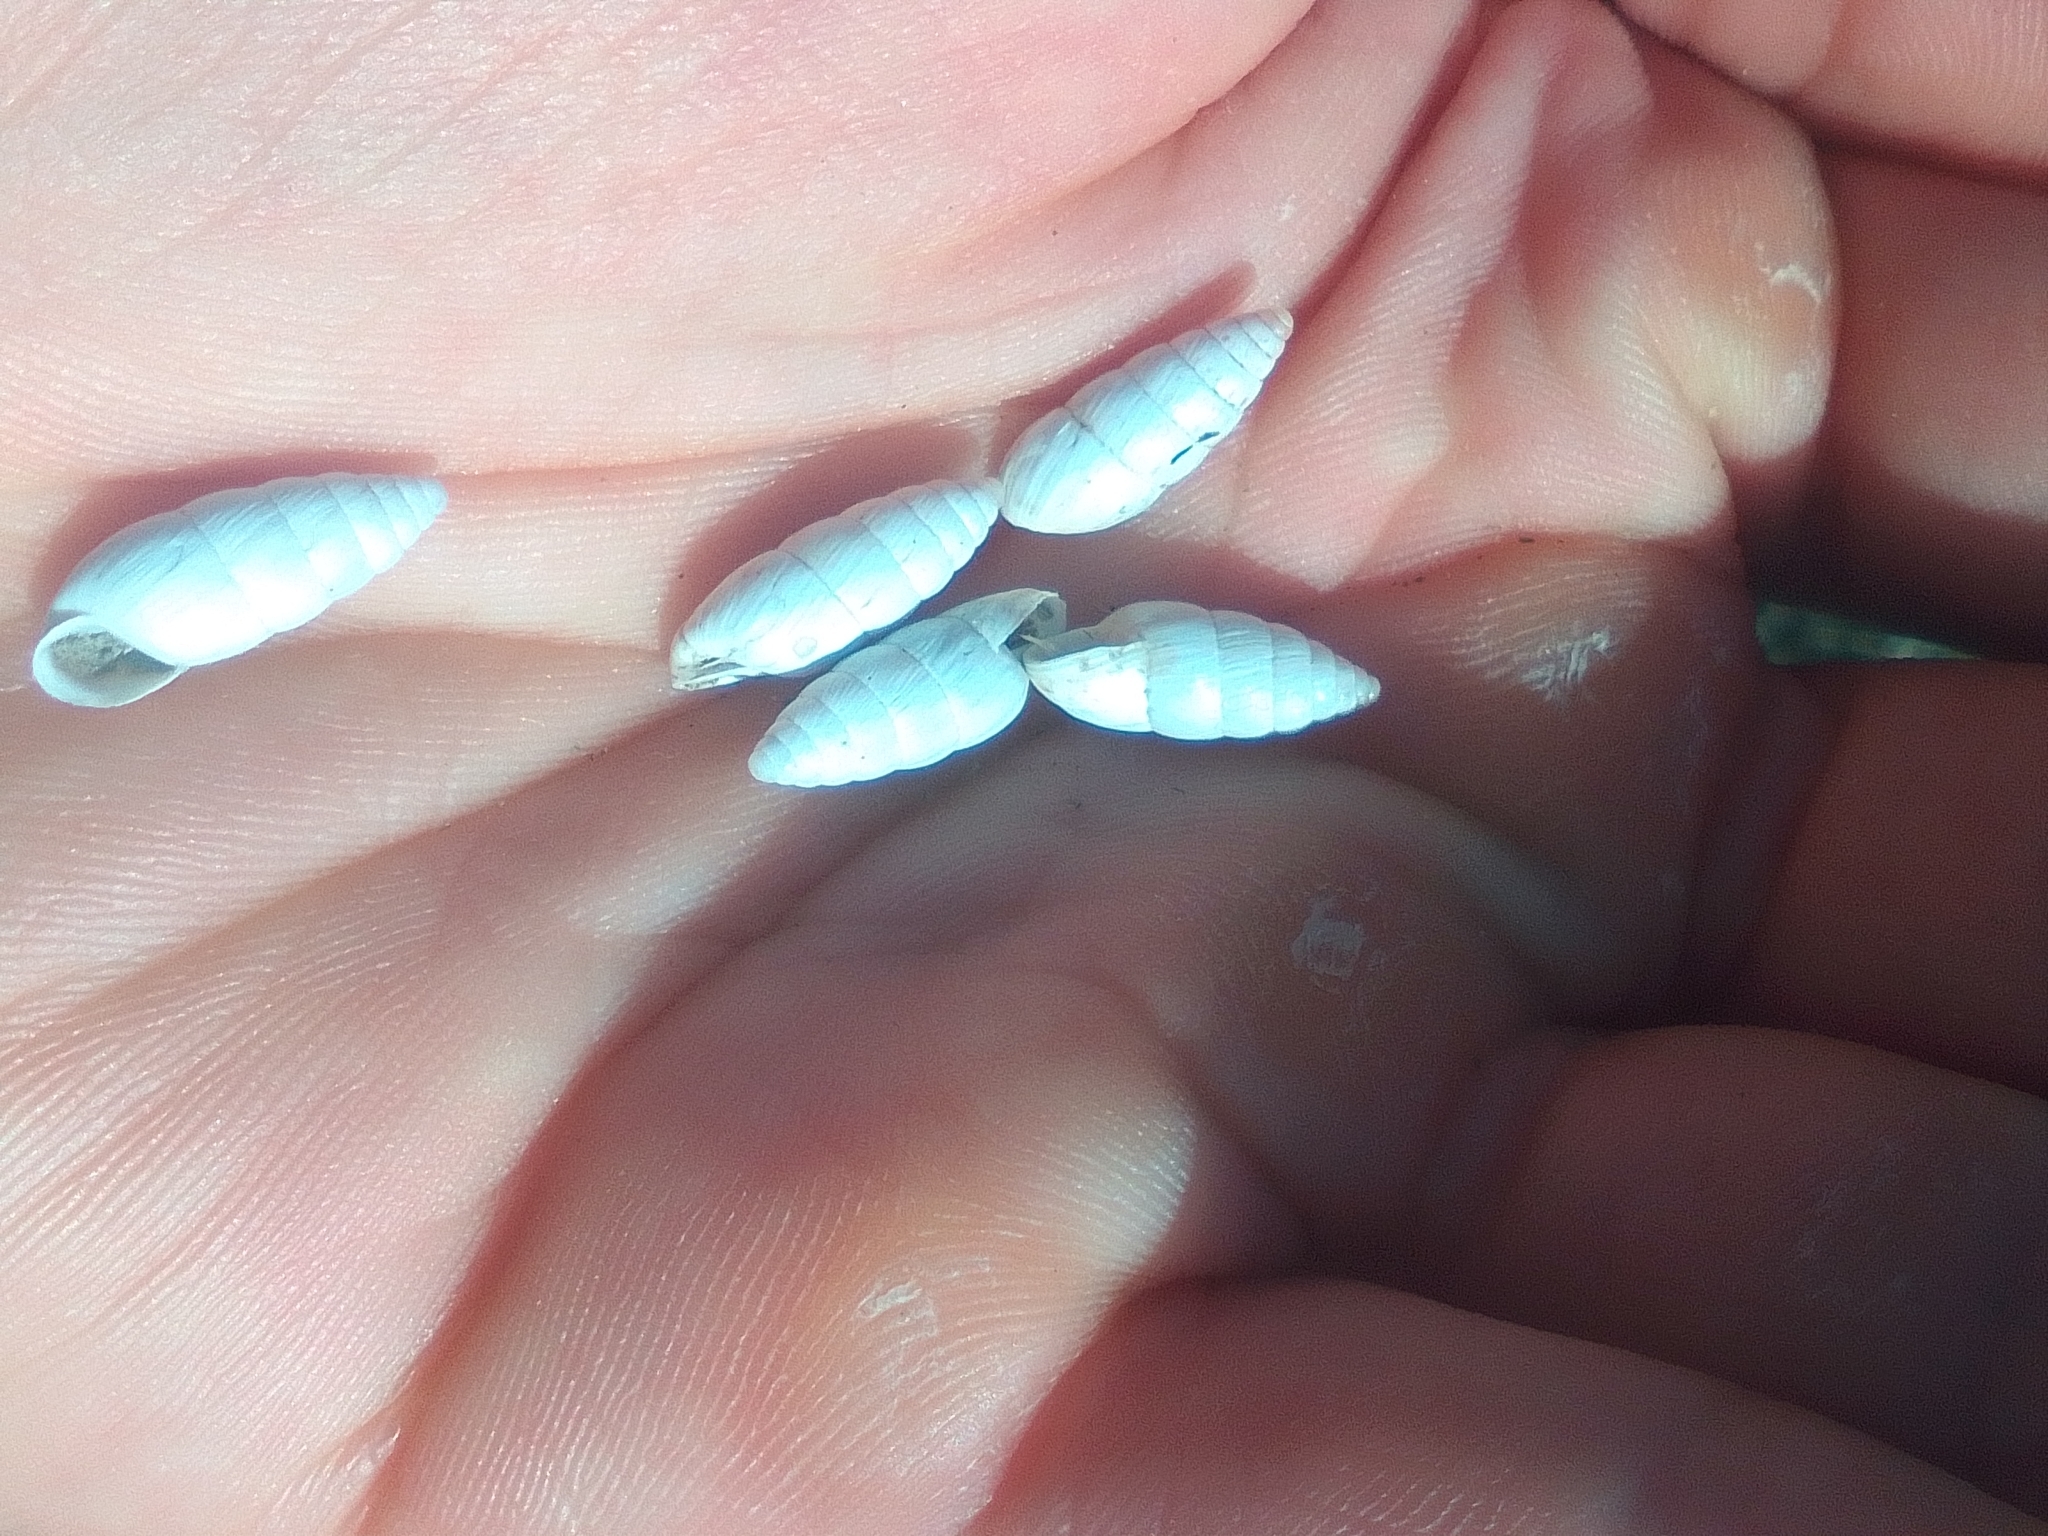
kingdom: Animalia
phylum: Mollusca
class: Gastropoda
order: Stylommatophora
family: Enidae
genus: Brephulopsis
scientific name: Brephulopsis cylindrica
